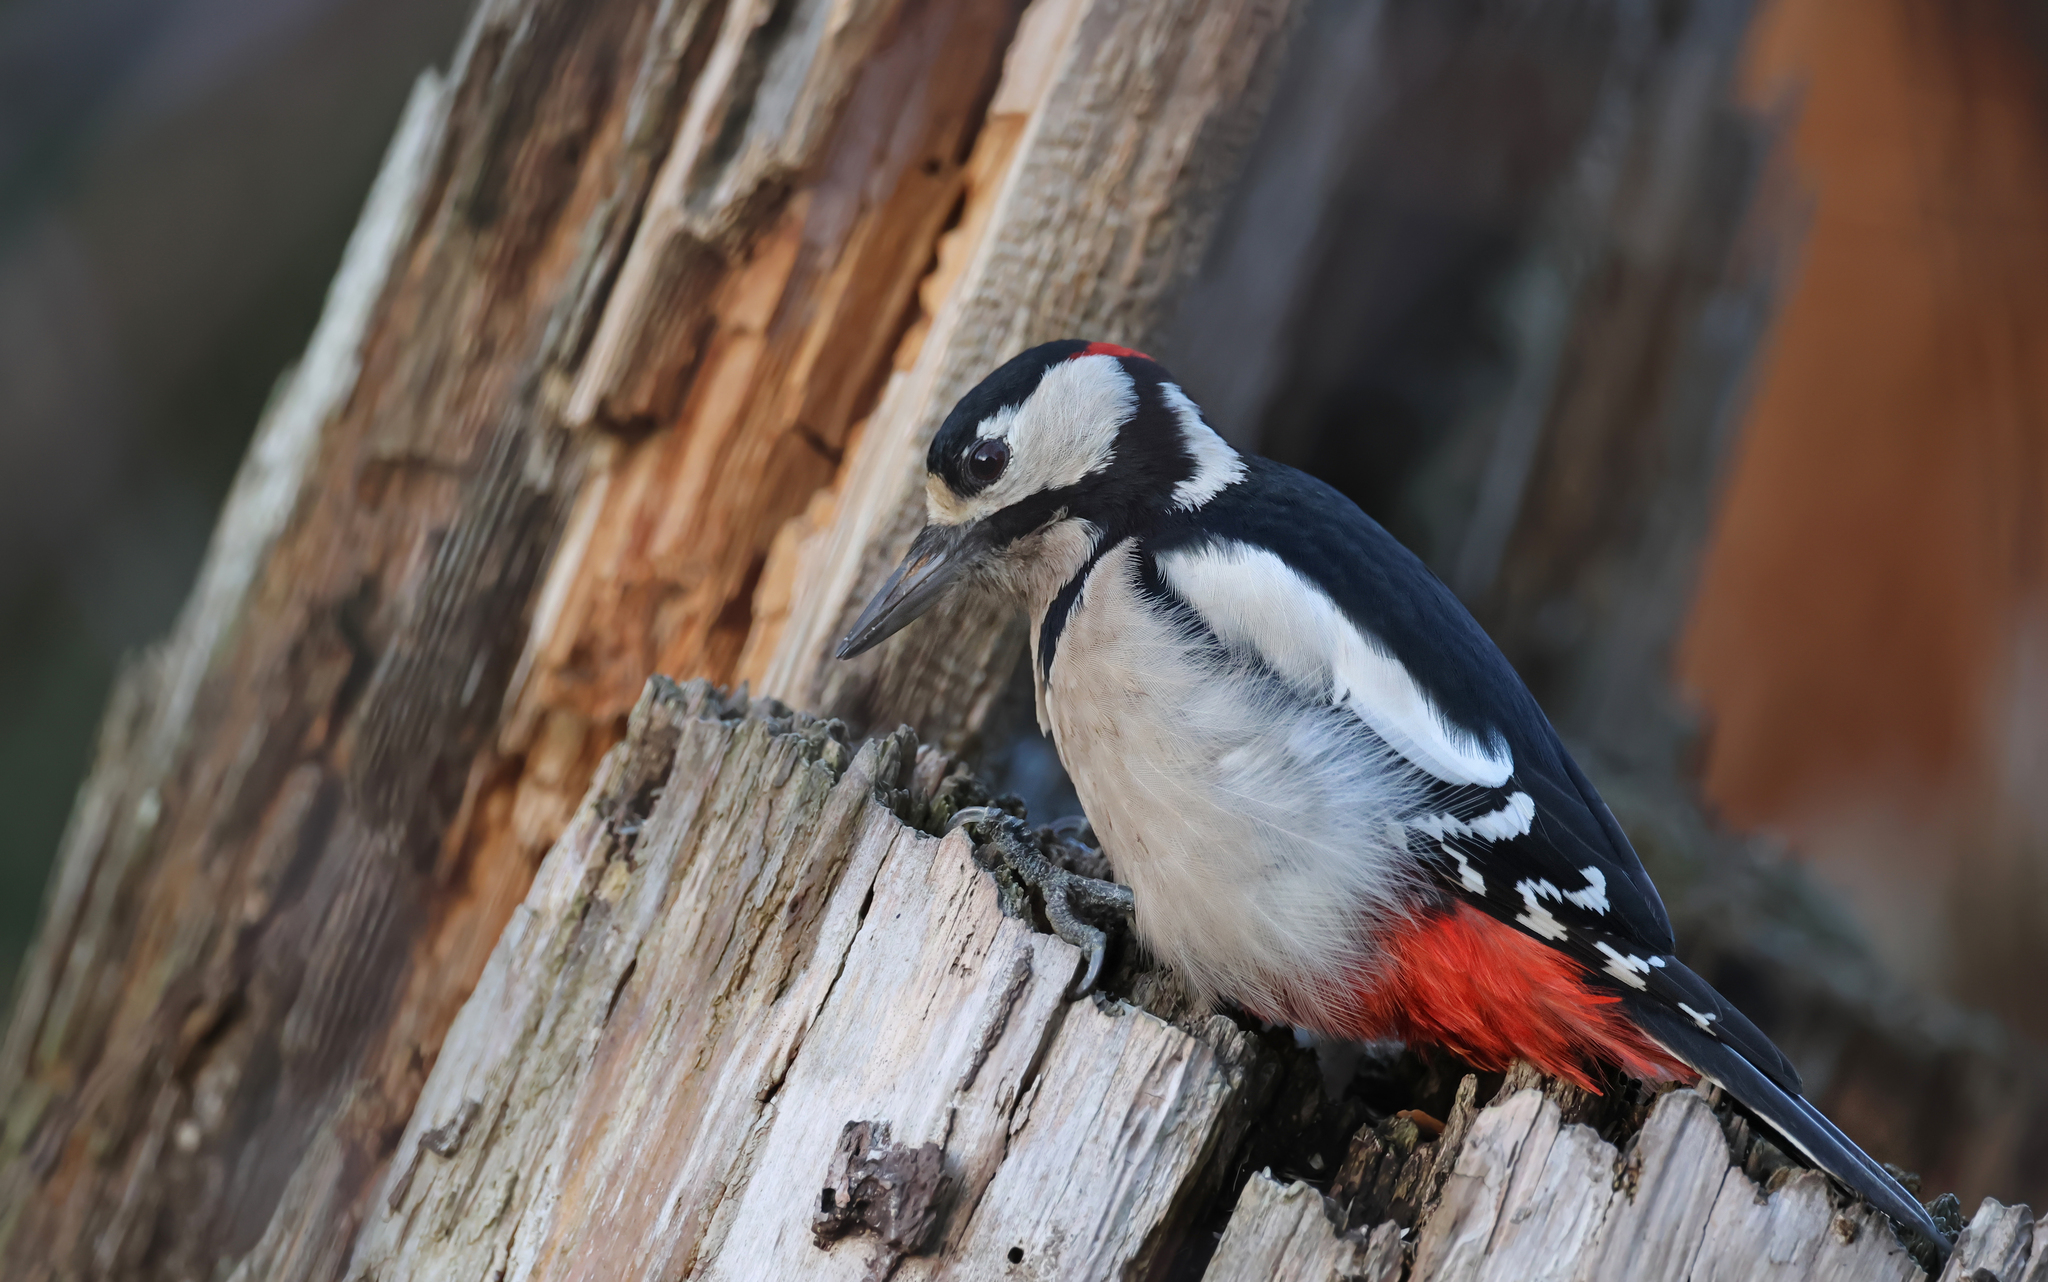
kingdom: Animalia
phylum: Chordata
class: Aves
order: Piciformes
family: Picidae
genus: Dendrocopos
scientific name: Dendrocopos major
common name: Great spotted woodpecker
